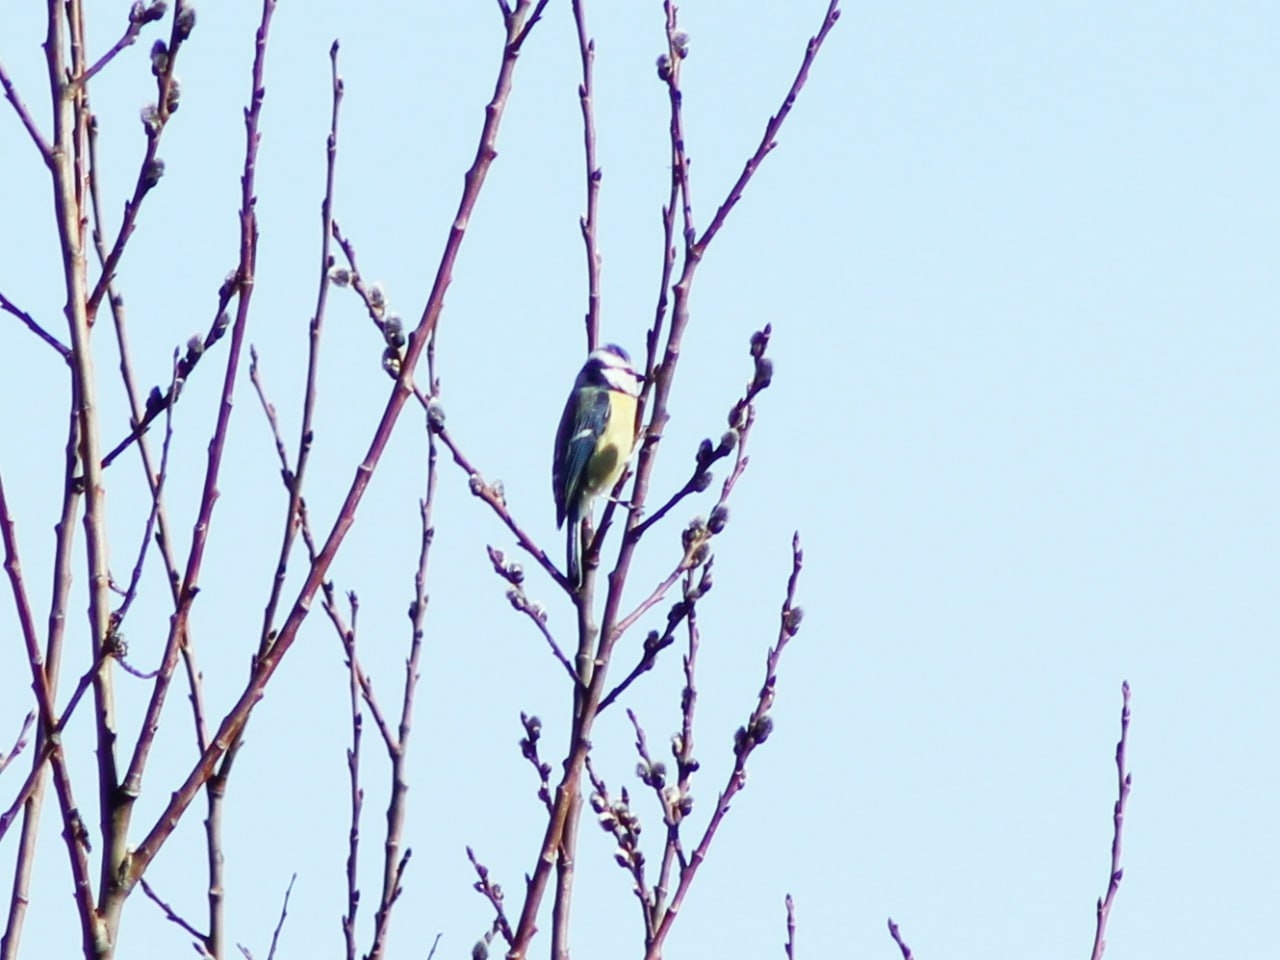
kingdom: Animalia
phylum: Chordata
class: Aves
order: Passeriformes
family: Paridae
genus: Cyanistes
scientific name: Cyanistes caeruleus
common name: Eurasian blue tit
